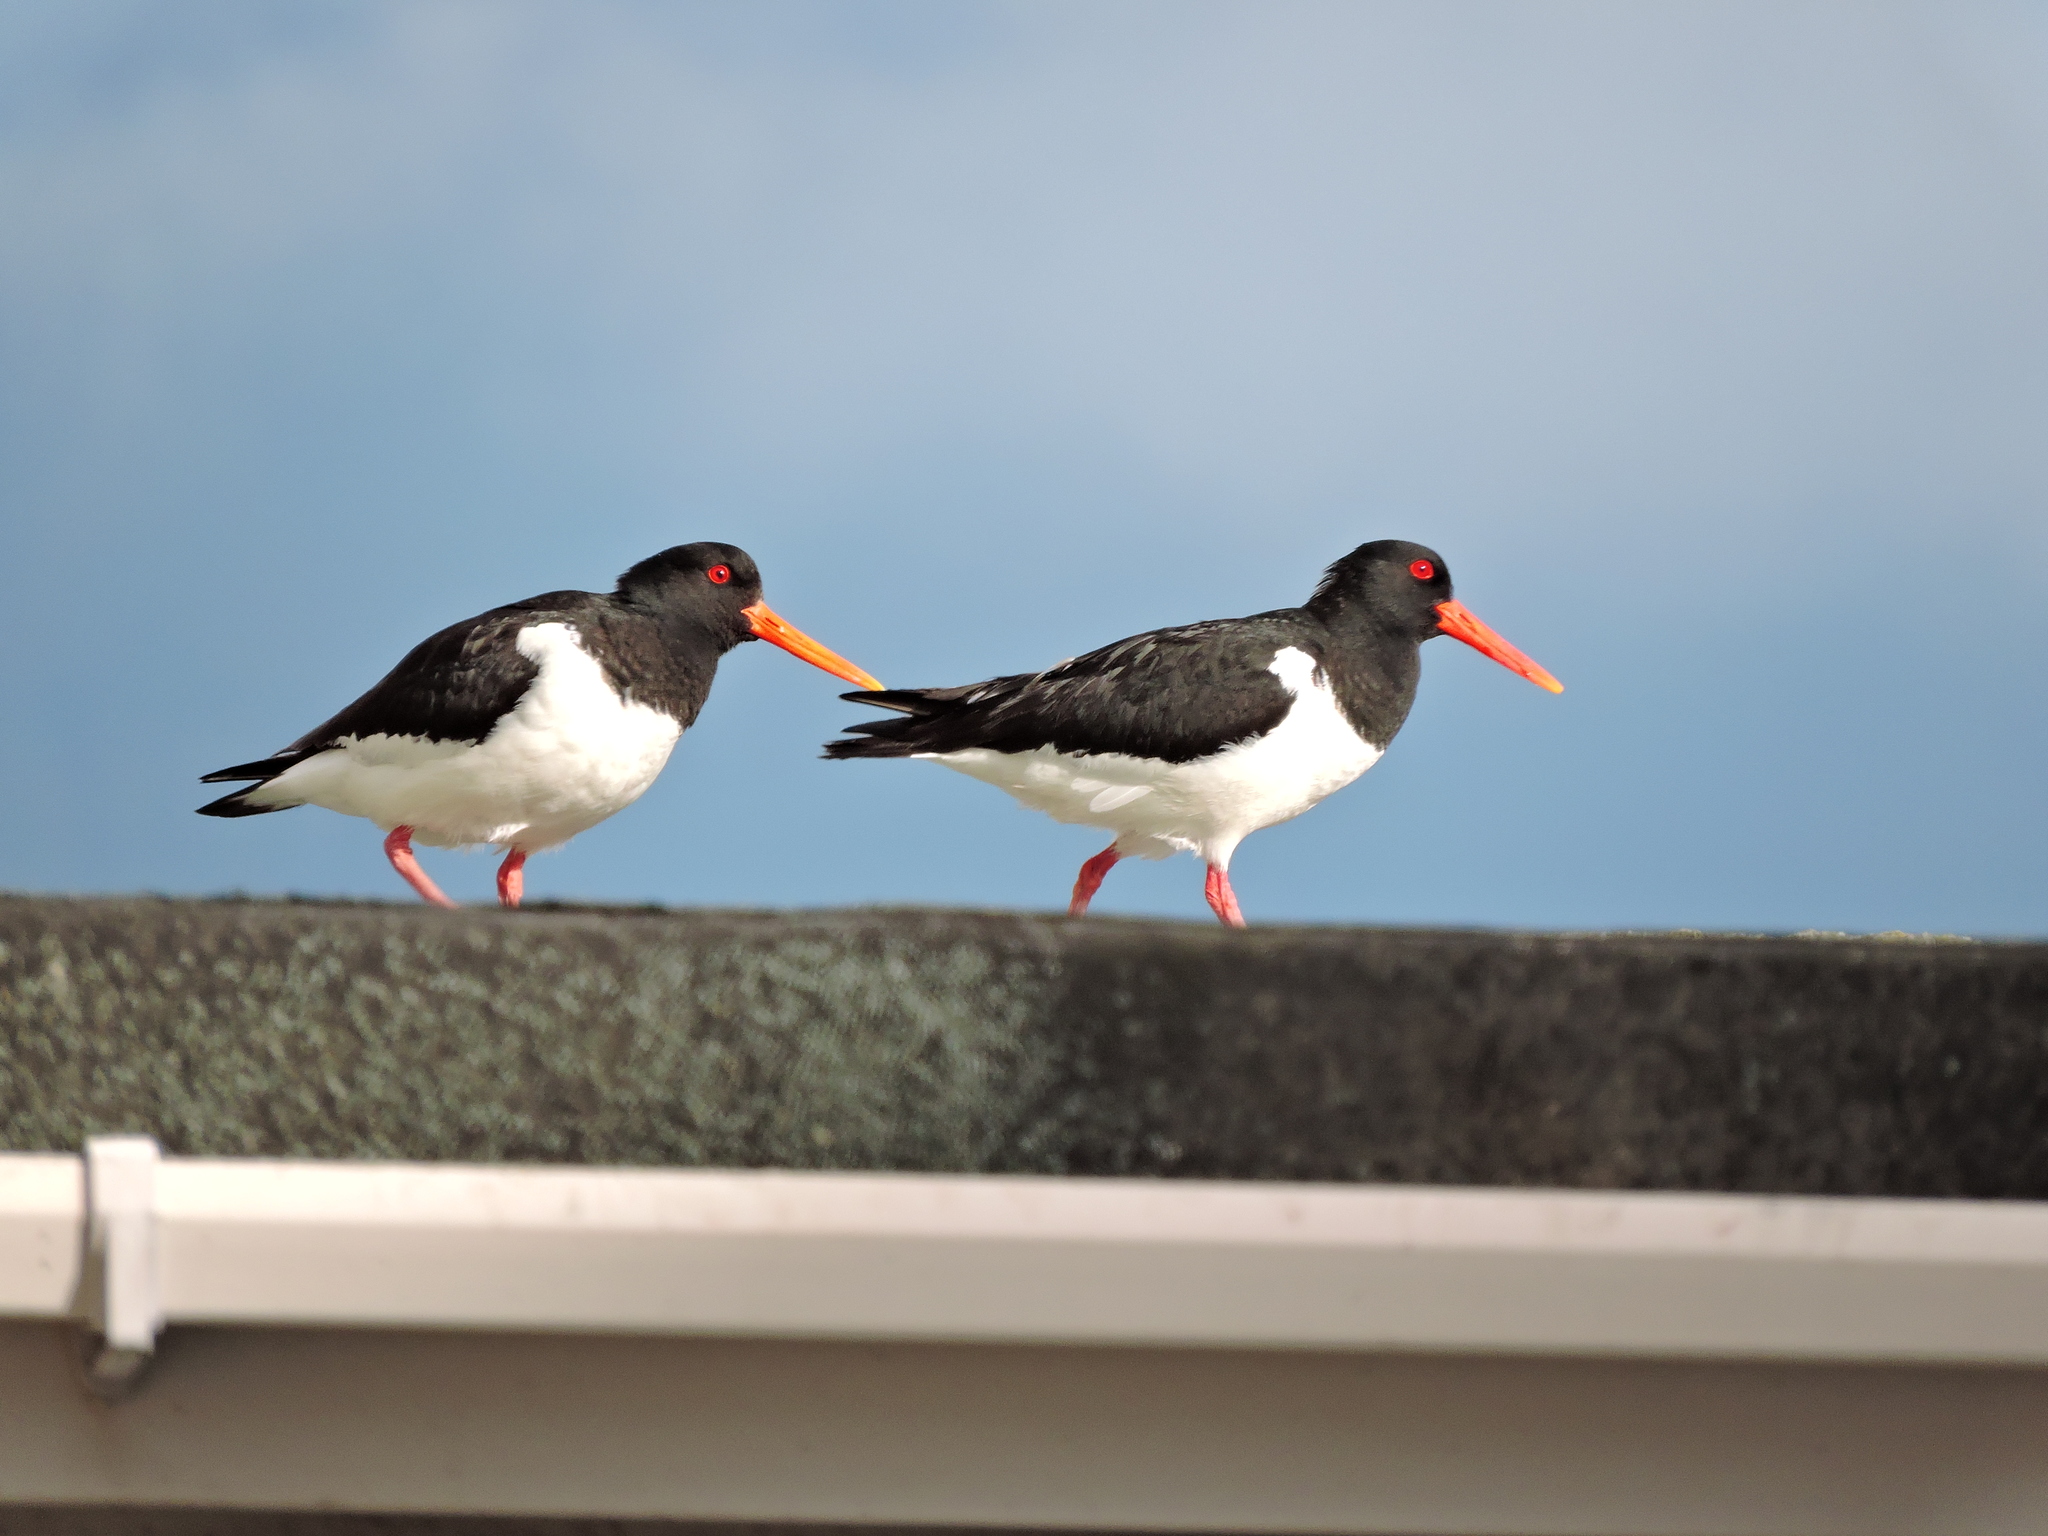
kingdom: Animalia
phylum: Chordata
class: Aves
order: Charadriiformes
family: Haematopodidae
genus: Haematopus
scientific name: Haematopus ostralegus
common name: Eurasian oystercatcher
